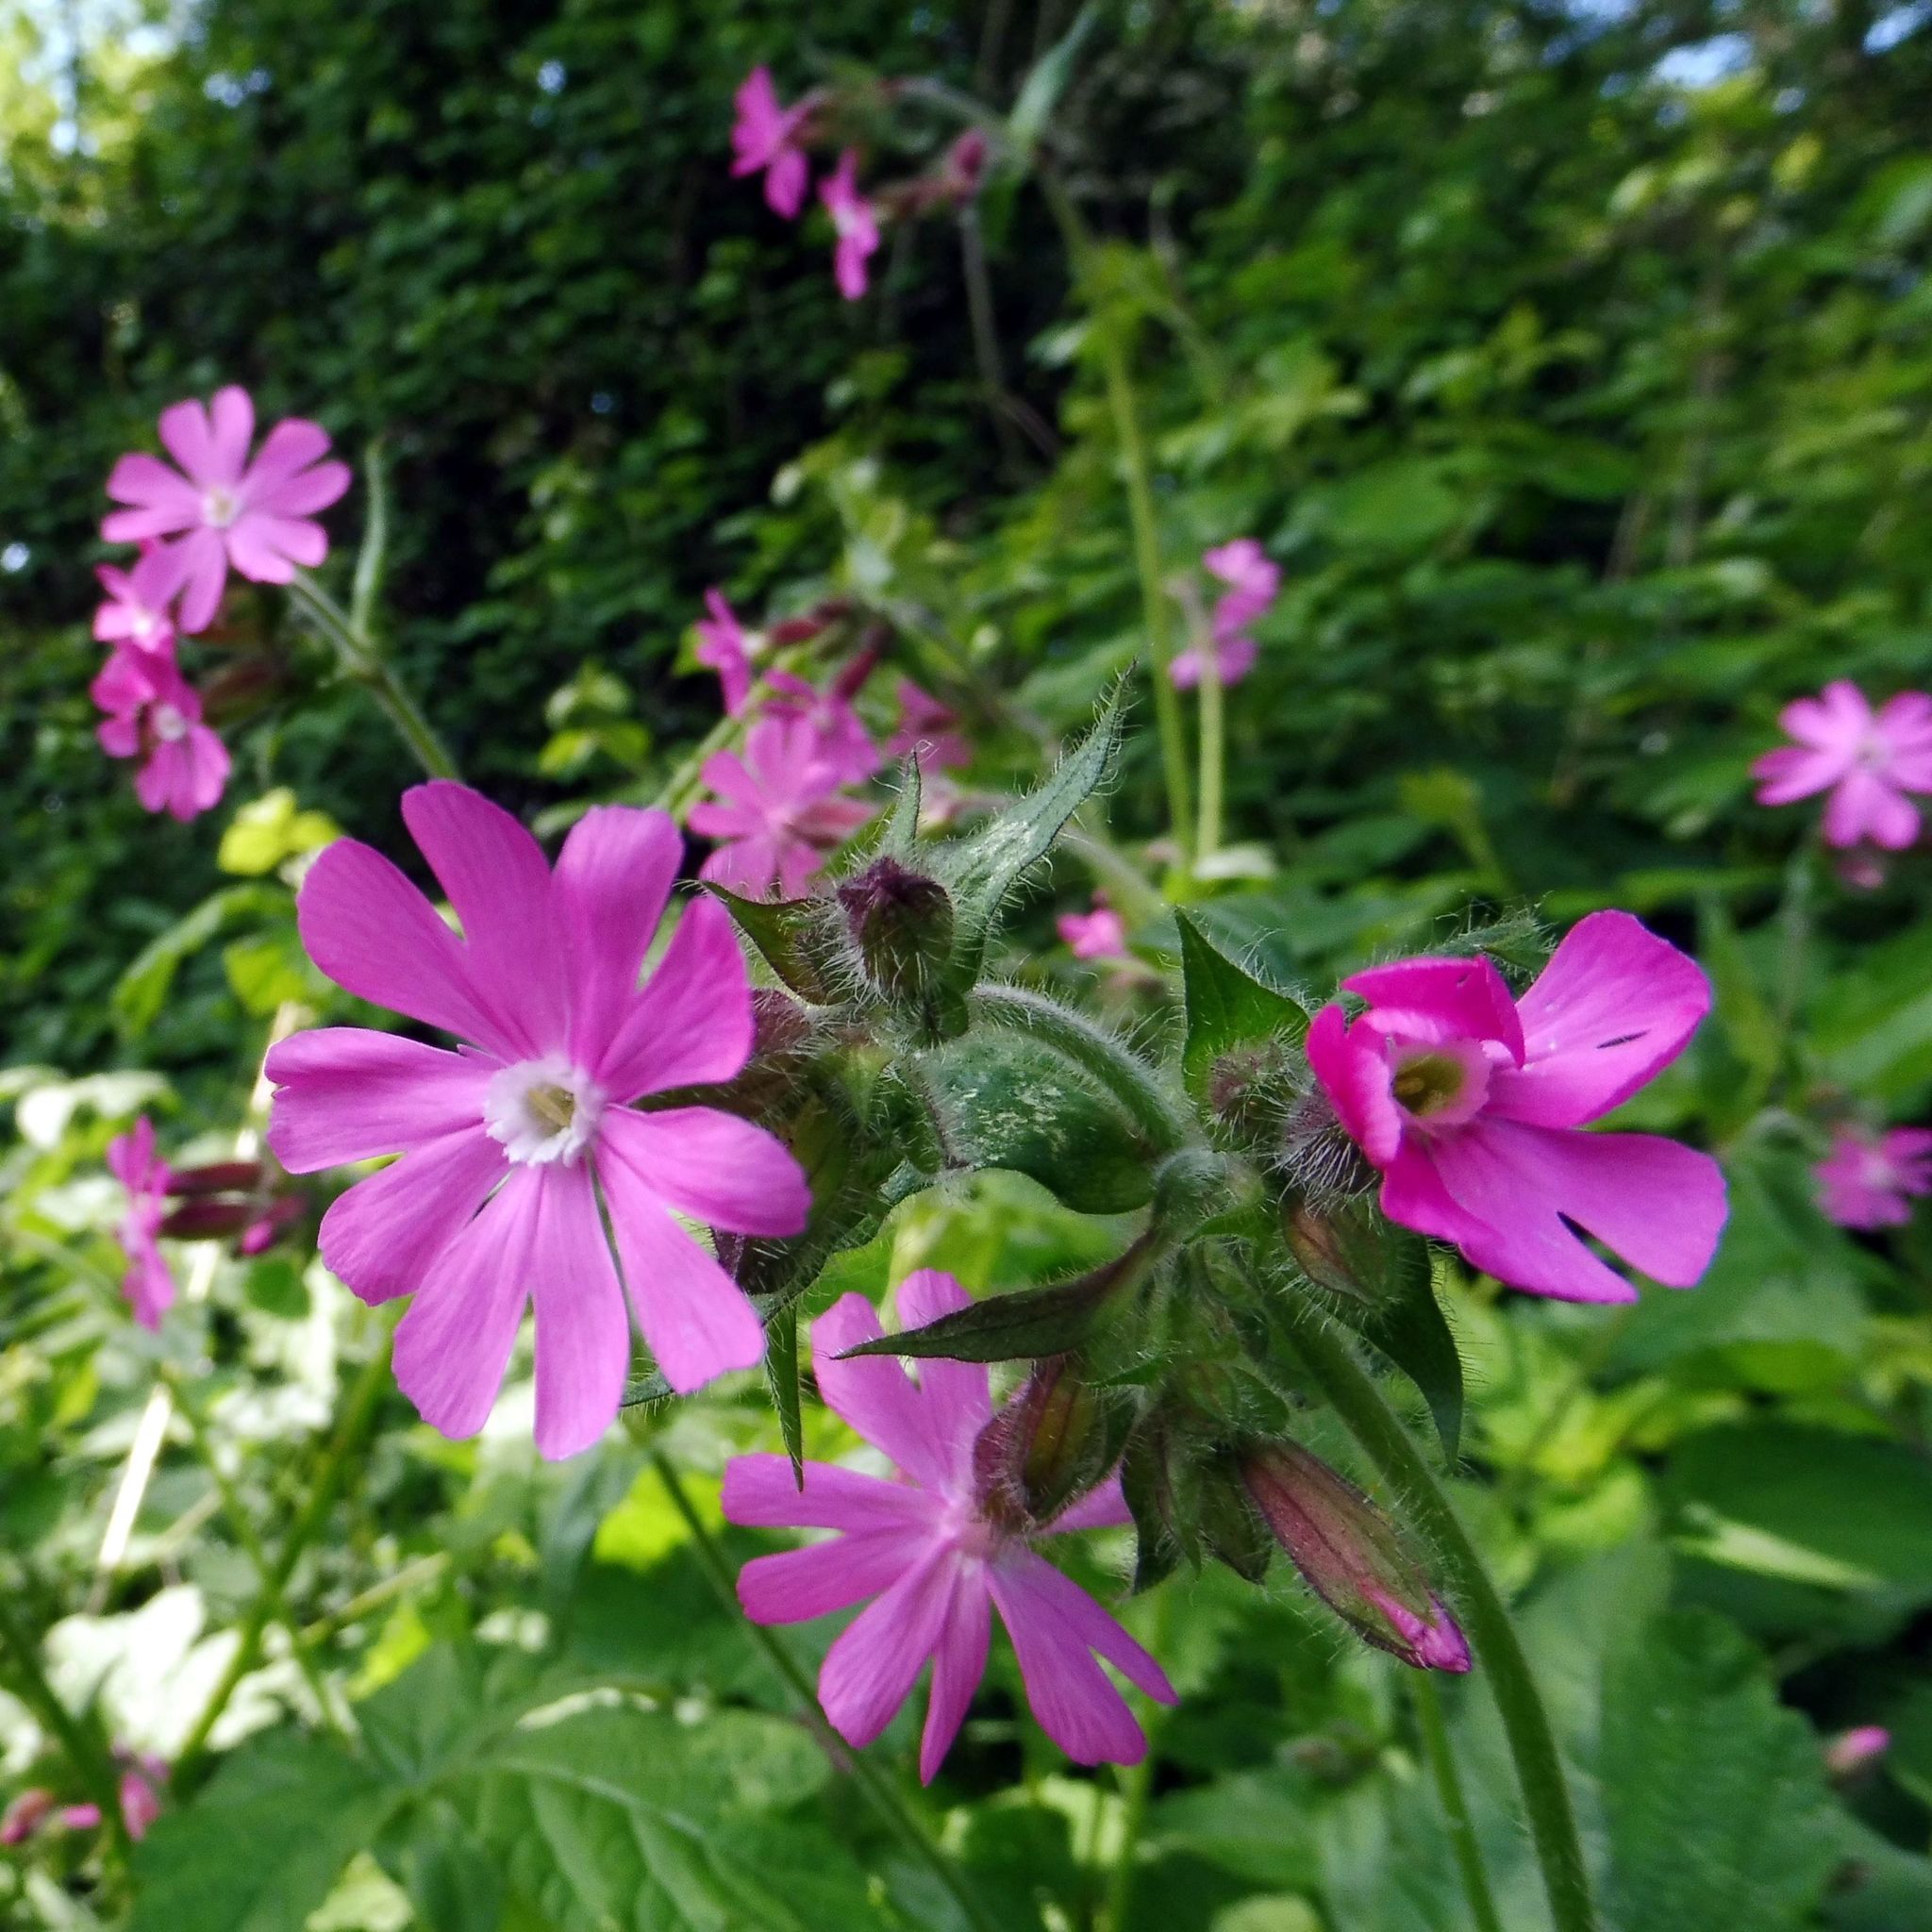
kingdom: Plantae
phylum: Tracheophyta
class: Magnoliopsida
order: Caryophyllales
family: Caryophyllaceae
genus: Silene
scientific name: Silene dioica
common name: Red campion
